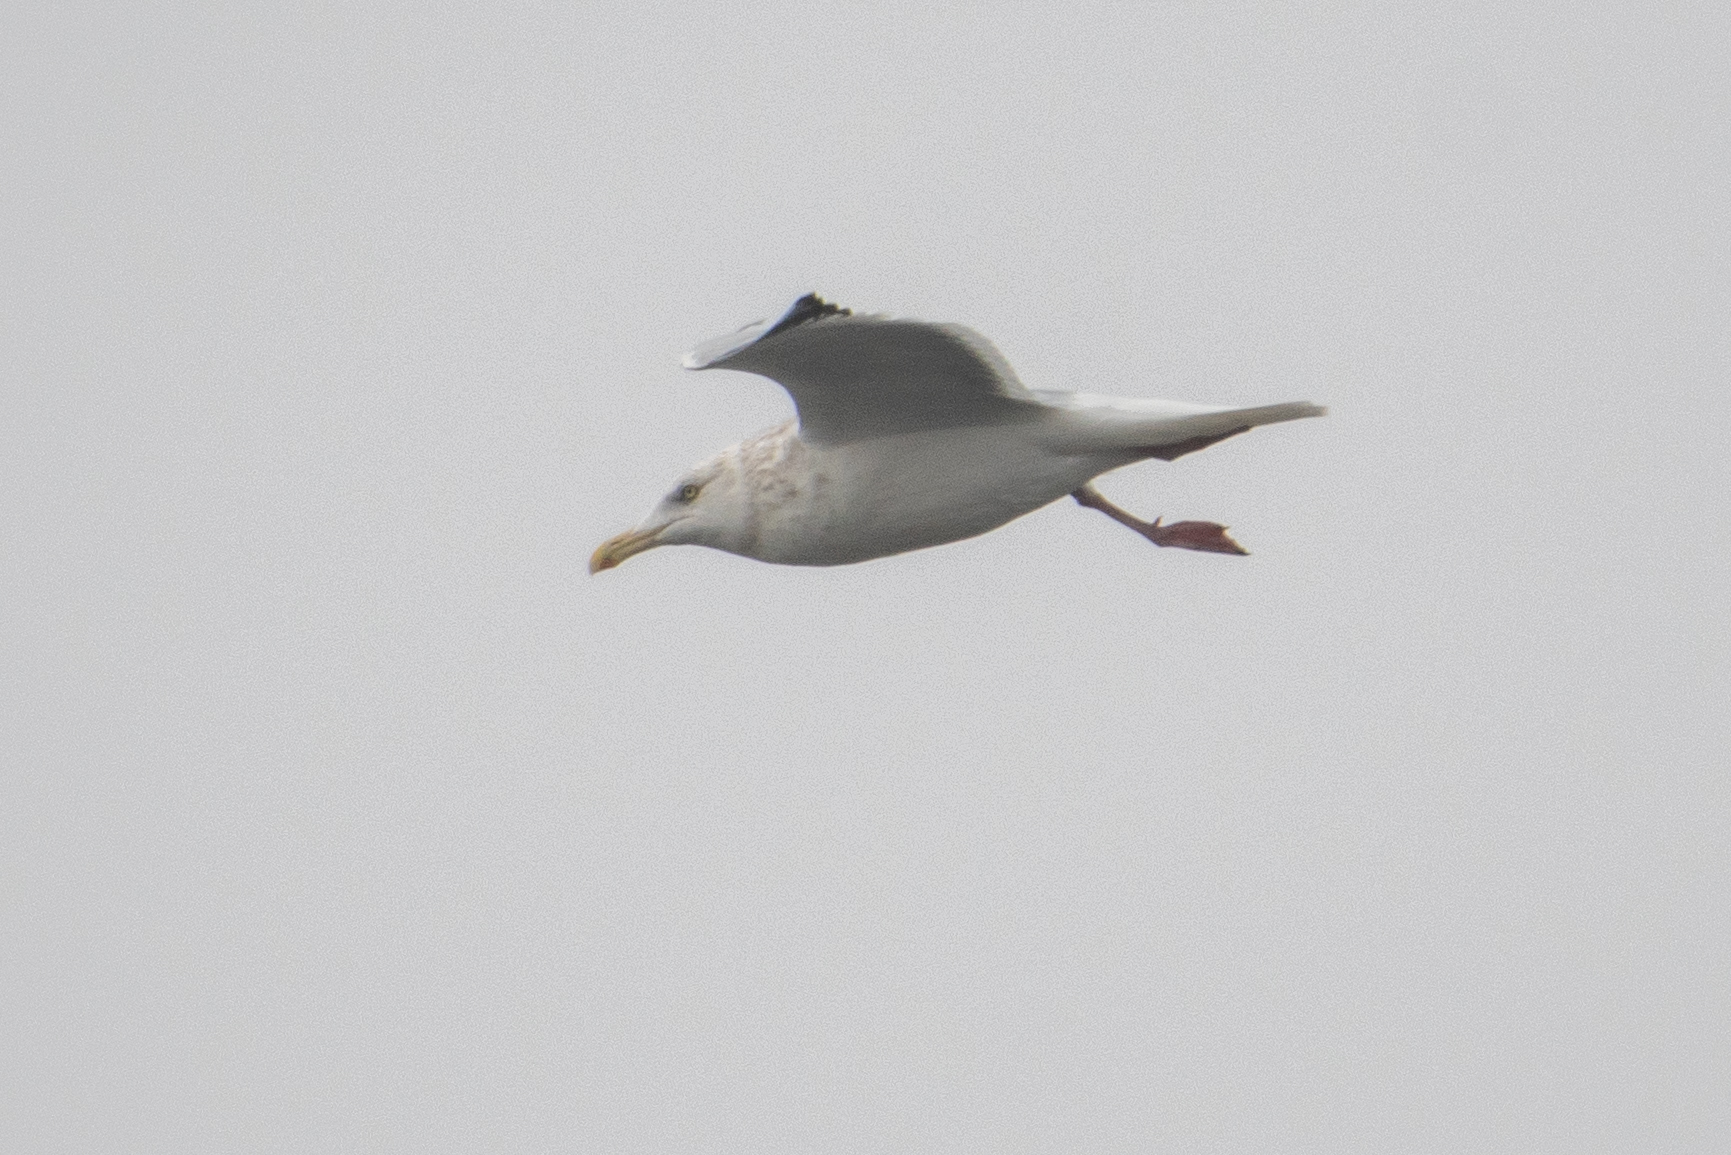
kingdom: Animalia
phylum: Chordata
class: Aves
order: Charadriiformes
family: Laridae
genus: Larus
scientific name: Larus argentatus
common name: Herring gull
